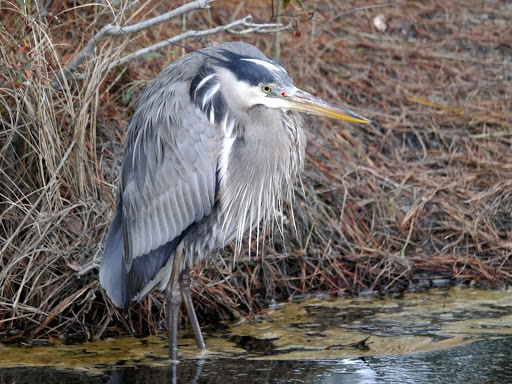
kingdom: Animalia
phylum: Chordata
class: Aves
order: Pelecaniformes
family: Ardeidae
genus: Ardea
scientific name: Ardea herodias
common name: Great blue heron
